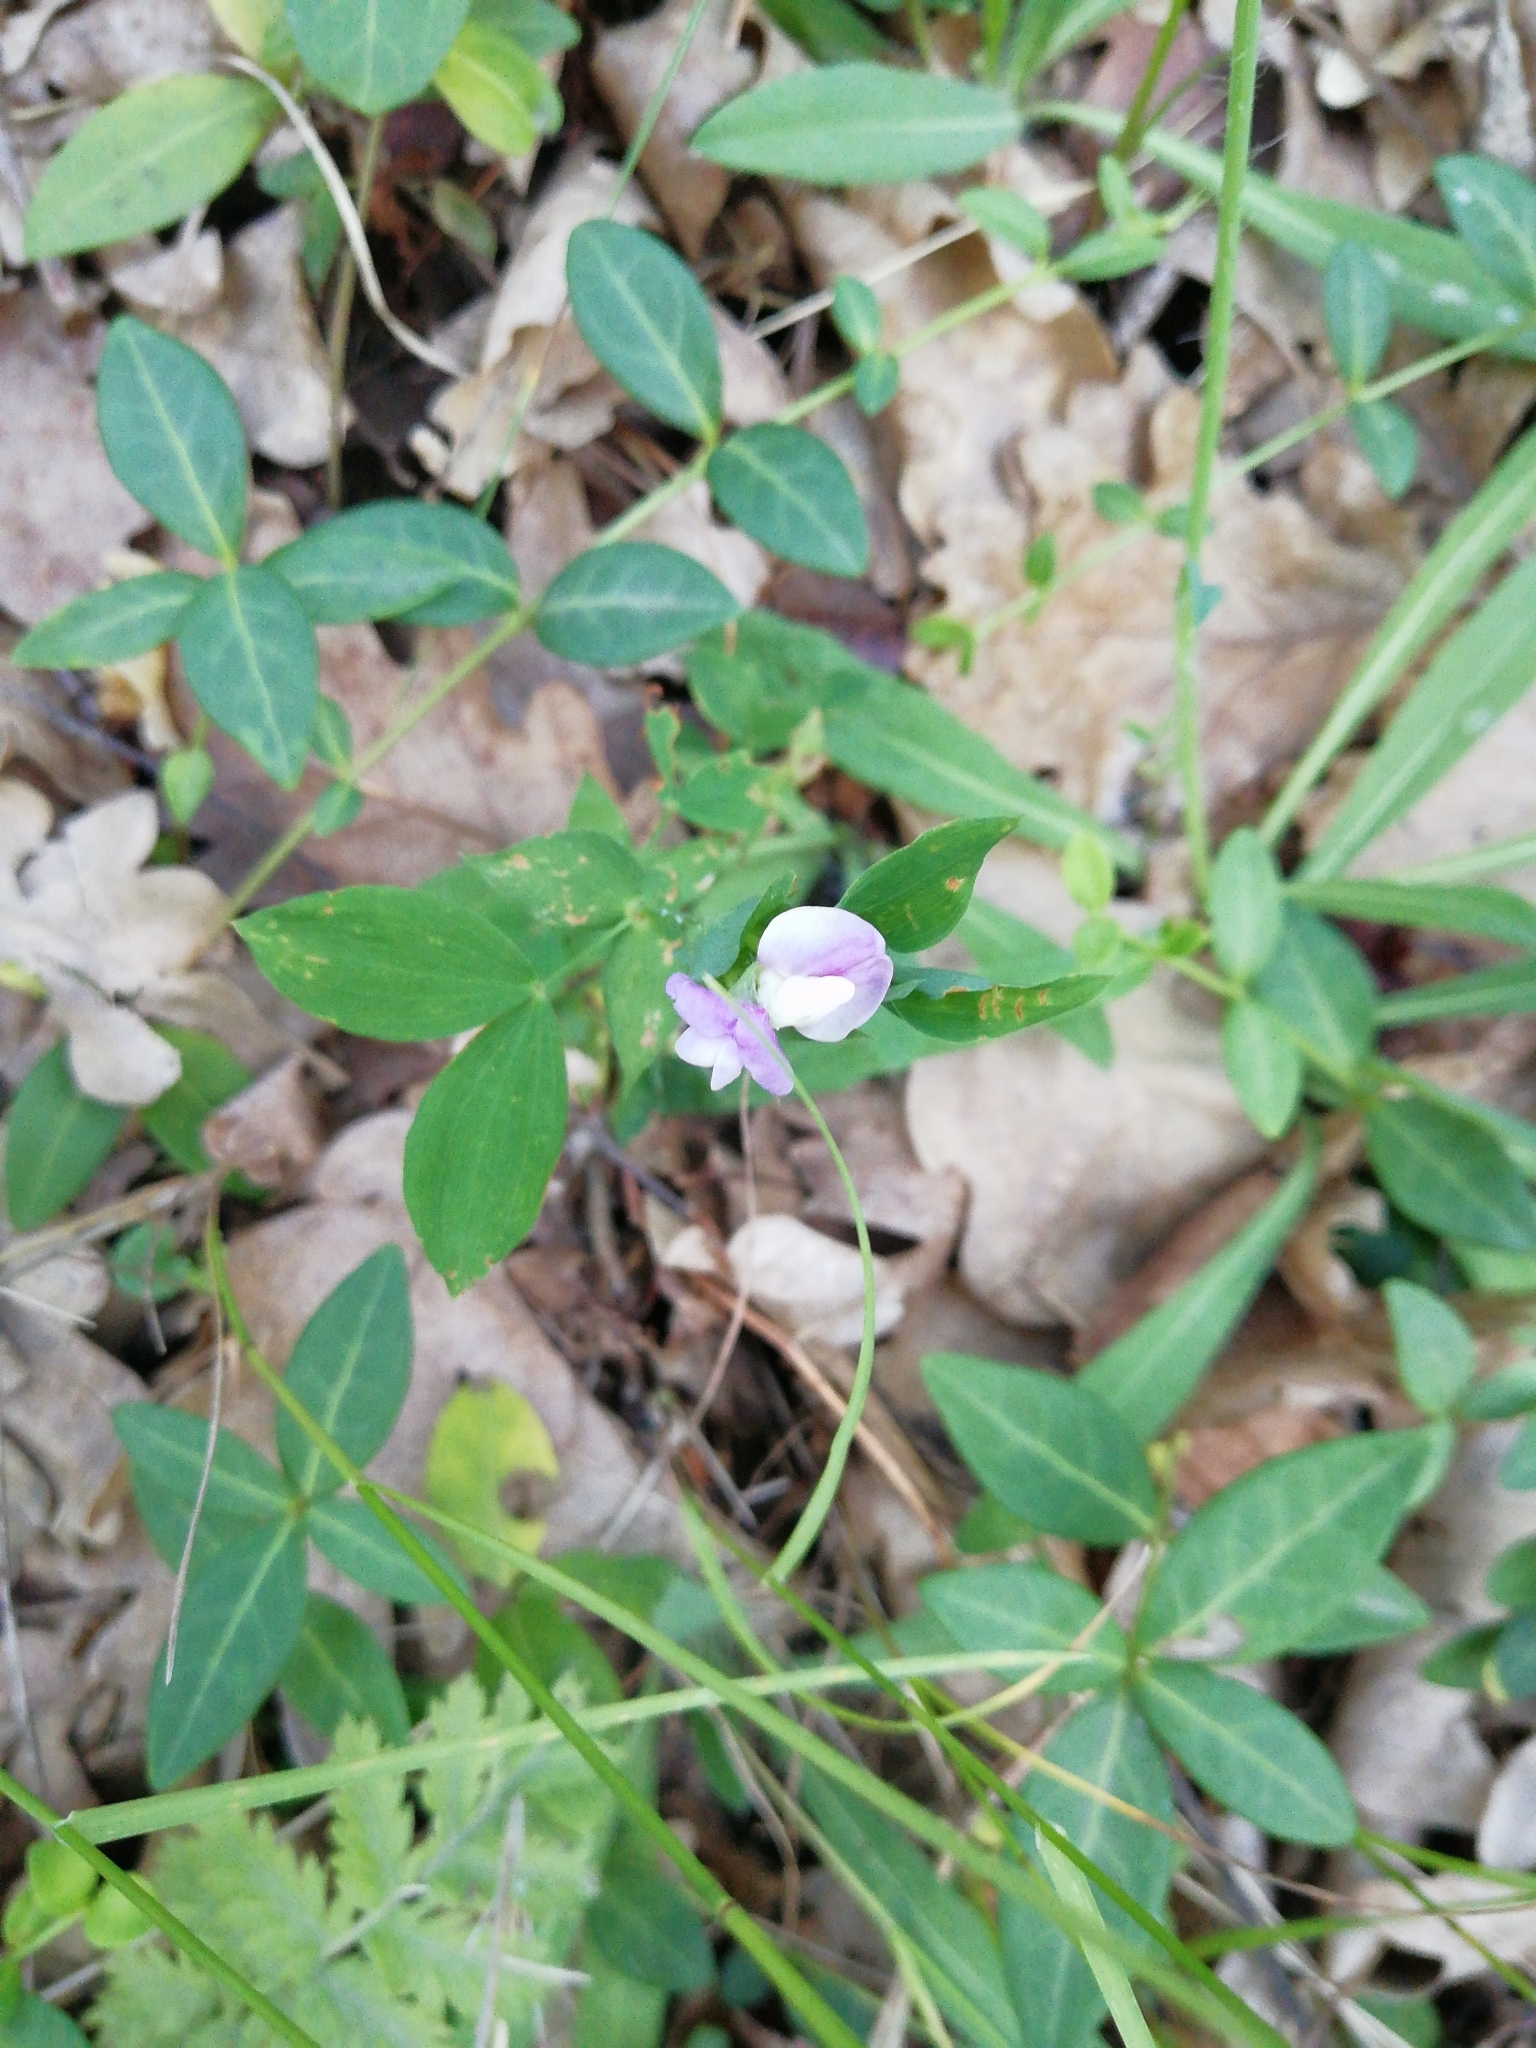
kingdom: Plantae
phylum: Tracheophyta
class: Magnoliopsida
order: Fabales
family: Fabaceae
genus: Lathyrus
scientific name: Lathyrus laxiflorus
